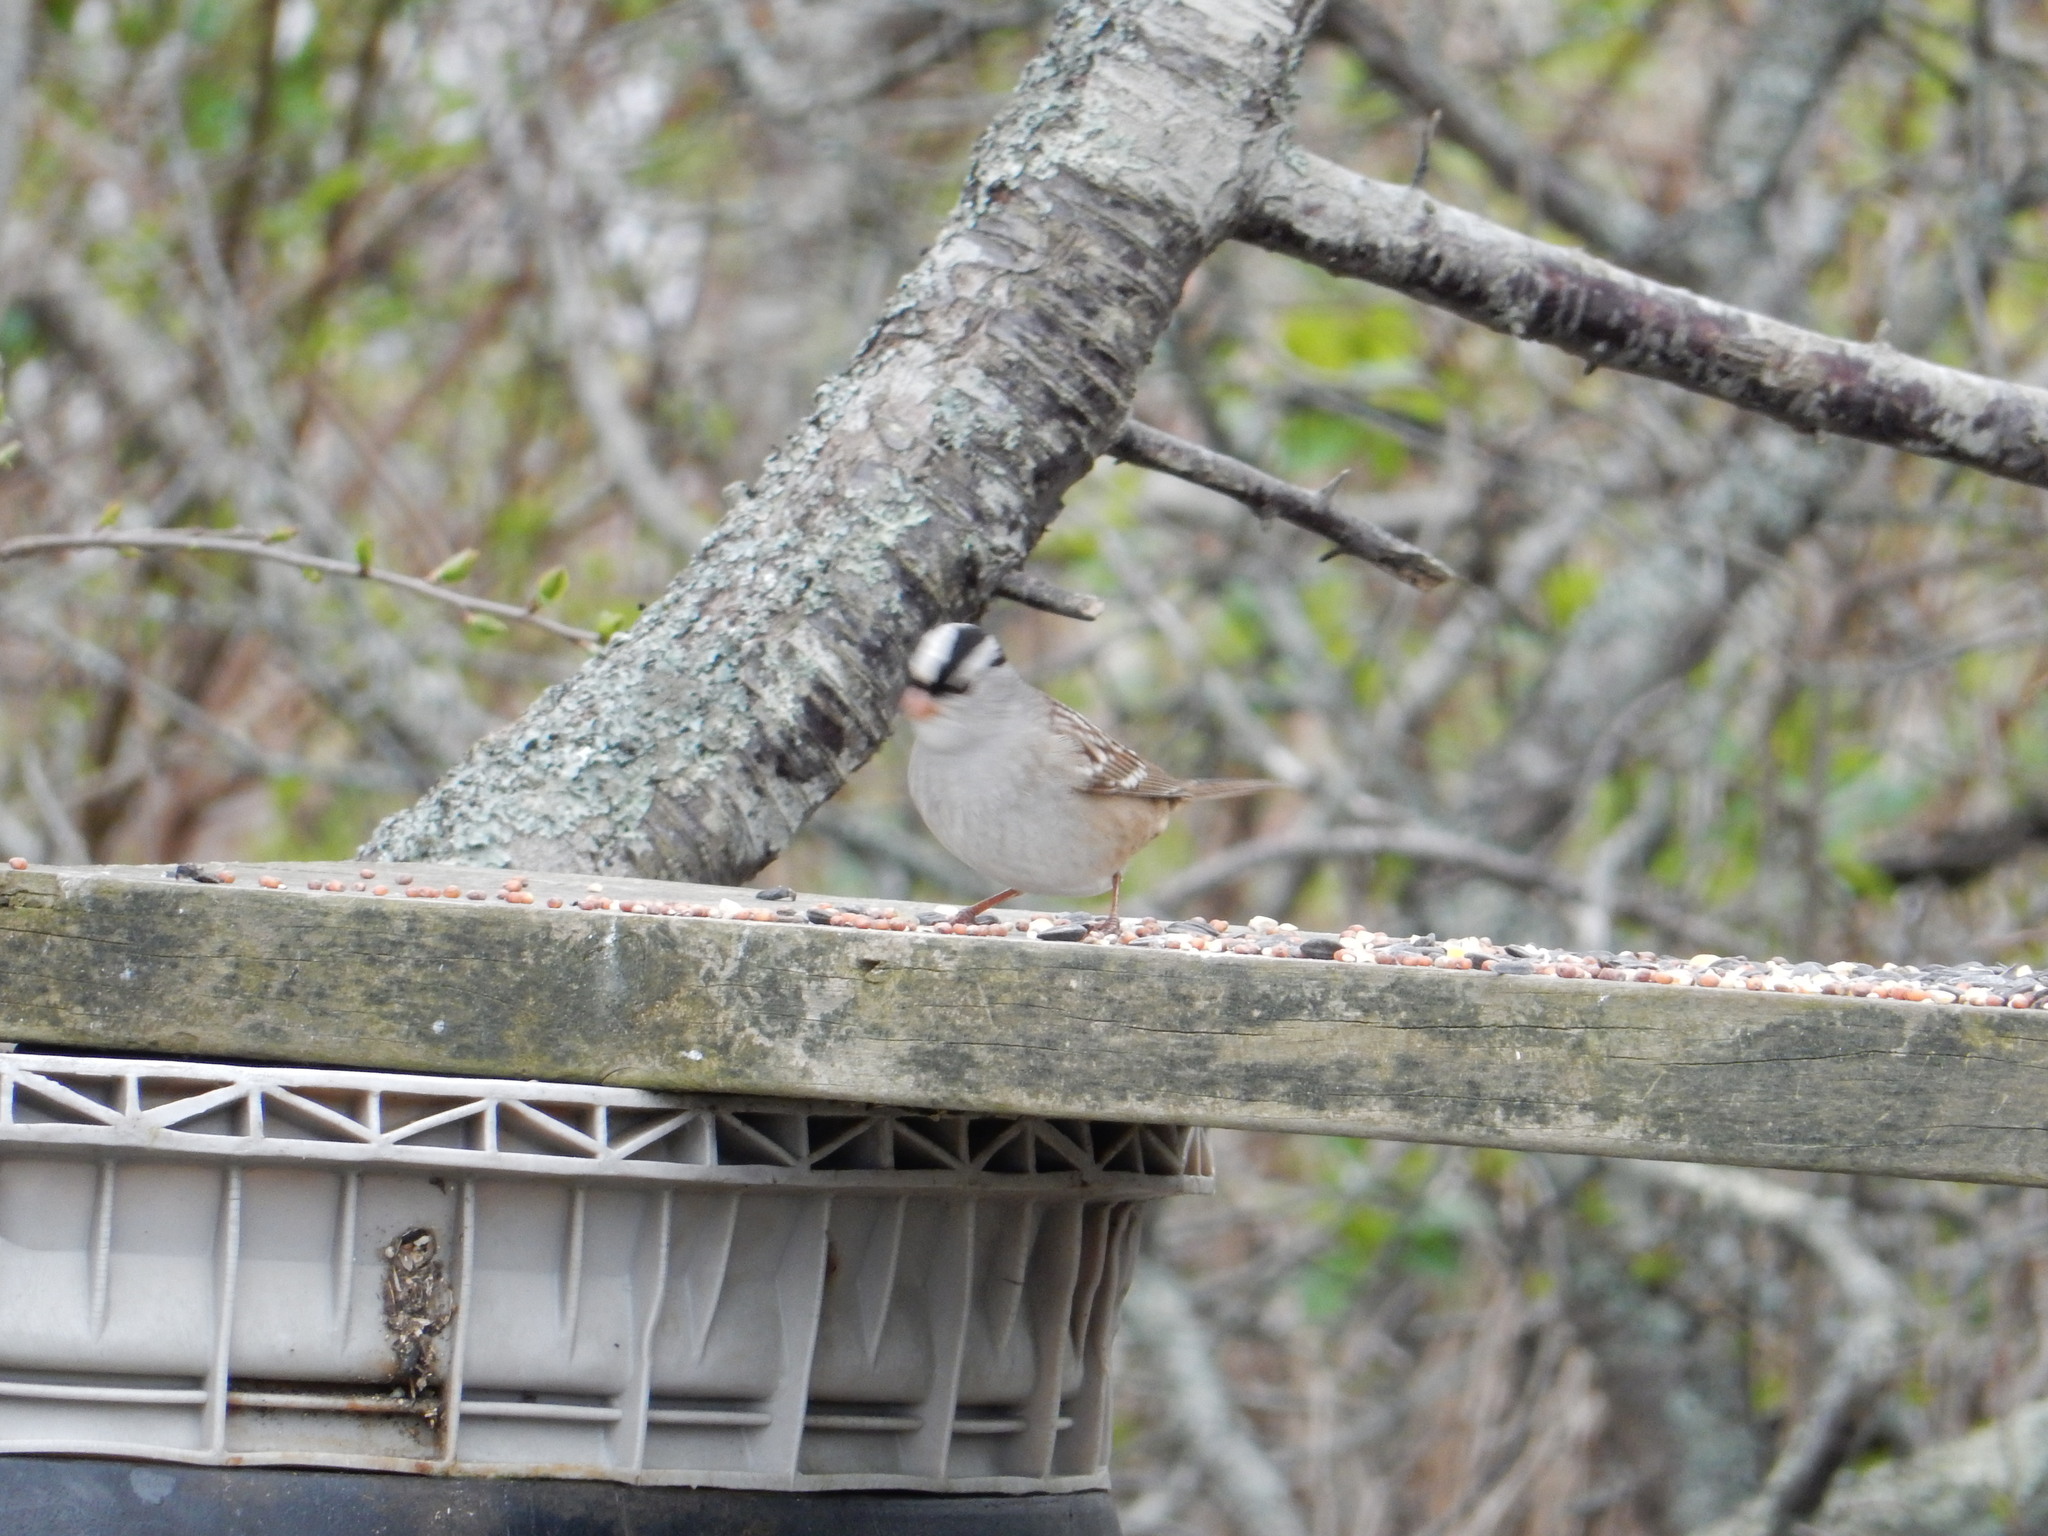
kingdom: Animalia
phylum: Chordata
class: Aves
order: Passeriformes
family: Passerellidae
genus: Zonotrichia
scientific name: Zonotrichia leucophrys
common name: White-crowned sparrow
